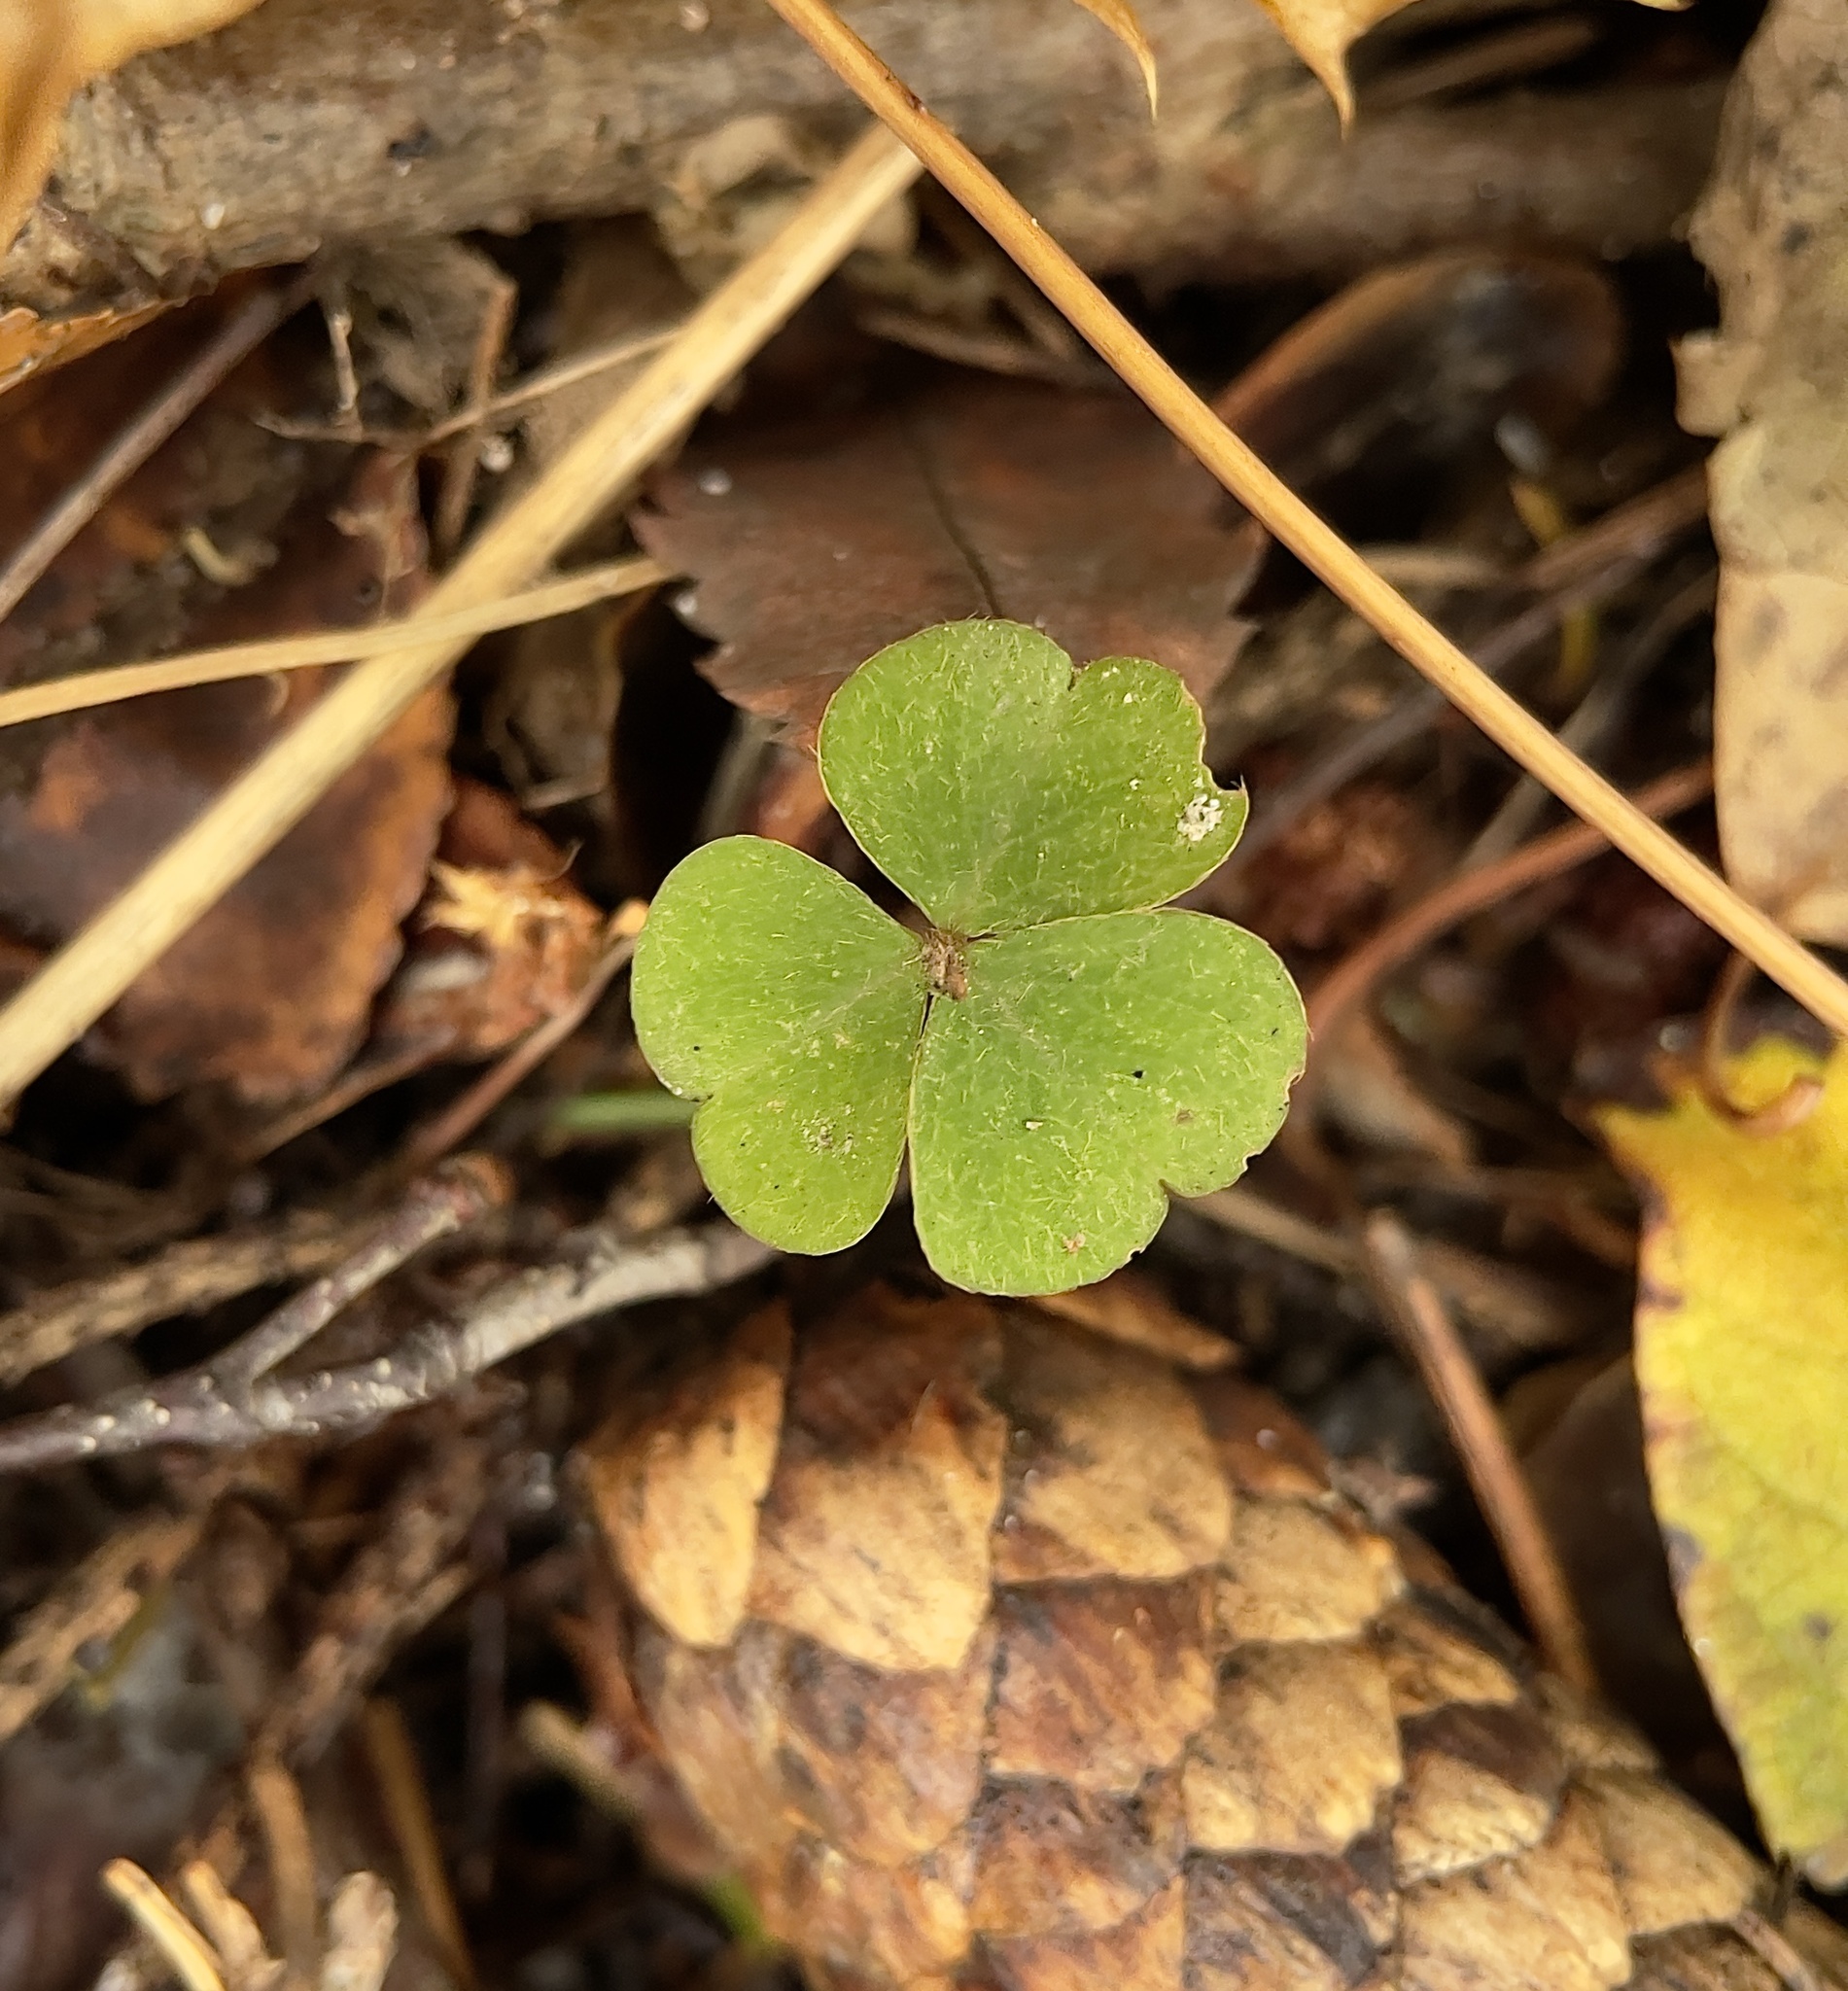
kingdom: Plantae
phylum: Tracheophyta
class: Magnoliopsida
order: Oxalidales
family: Oxalidaceae
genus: Oxalis
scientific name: Oxalis acetosella
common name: Wood-sorrel
